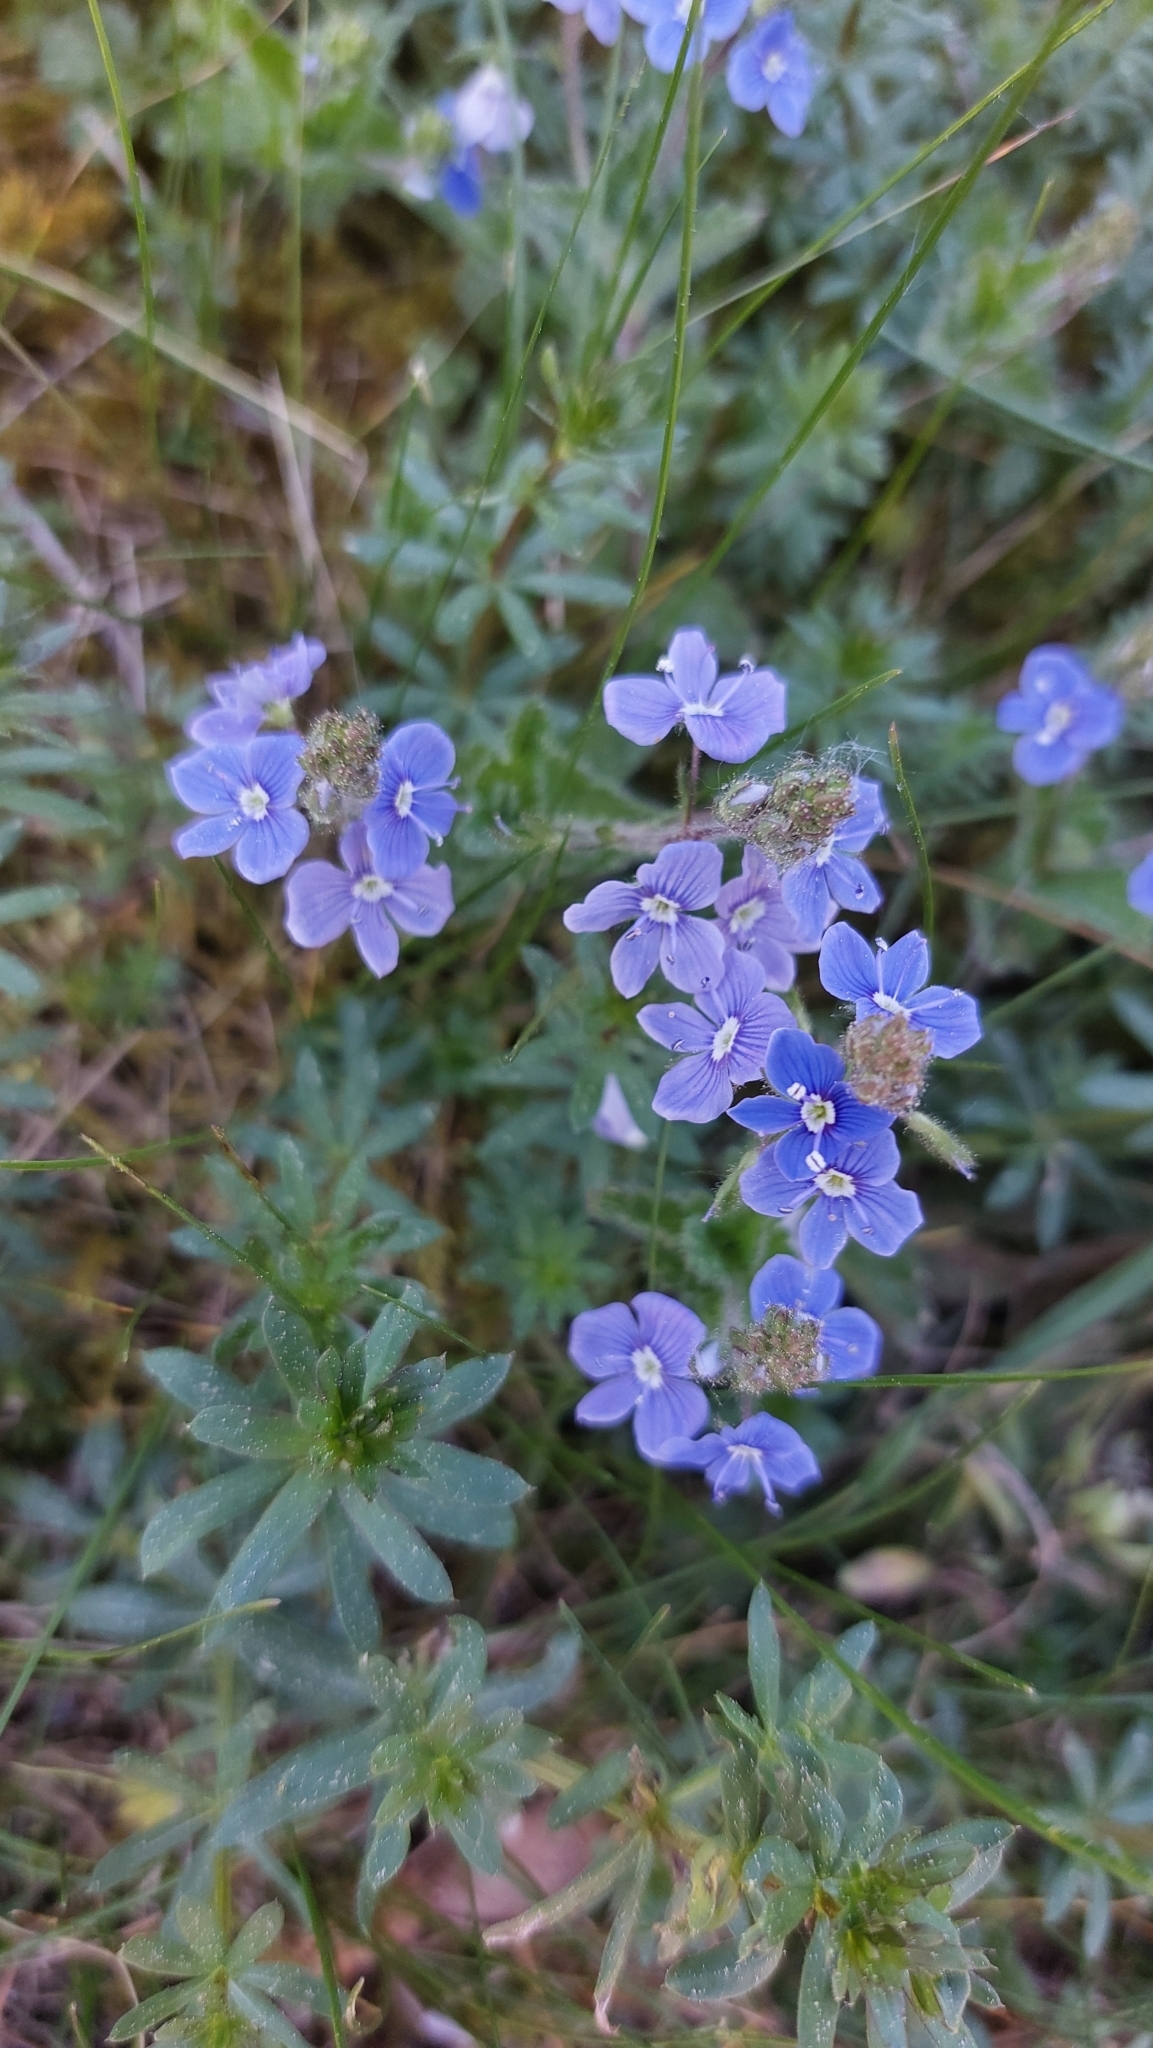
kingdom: Plantae
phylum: Tracheophyta
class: Magnoliopsida
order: Lamiales
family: Plantaginaceae
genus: Veronica
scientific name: Veronica chamaedrys
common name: Germander speedwell
